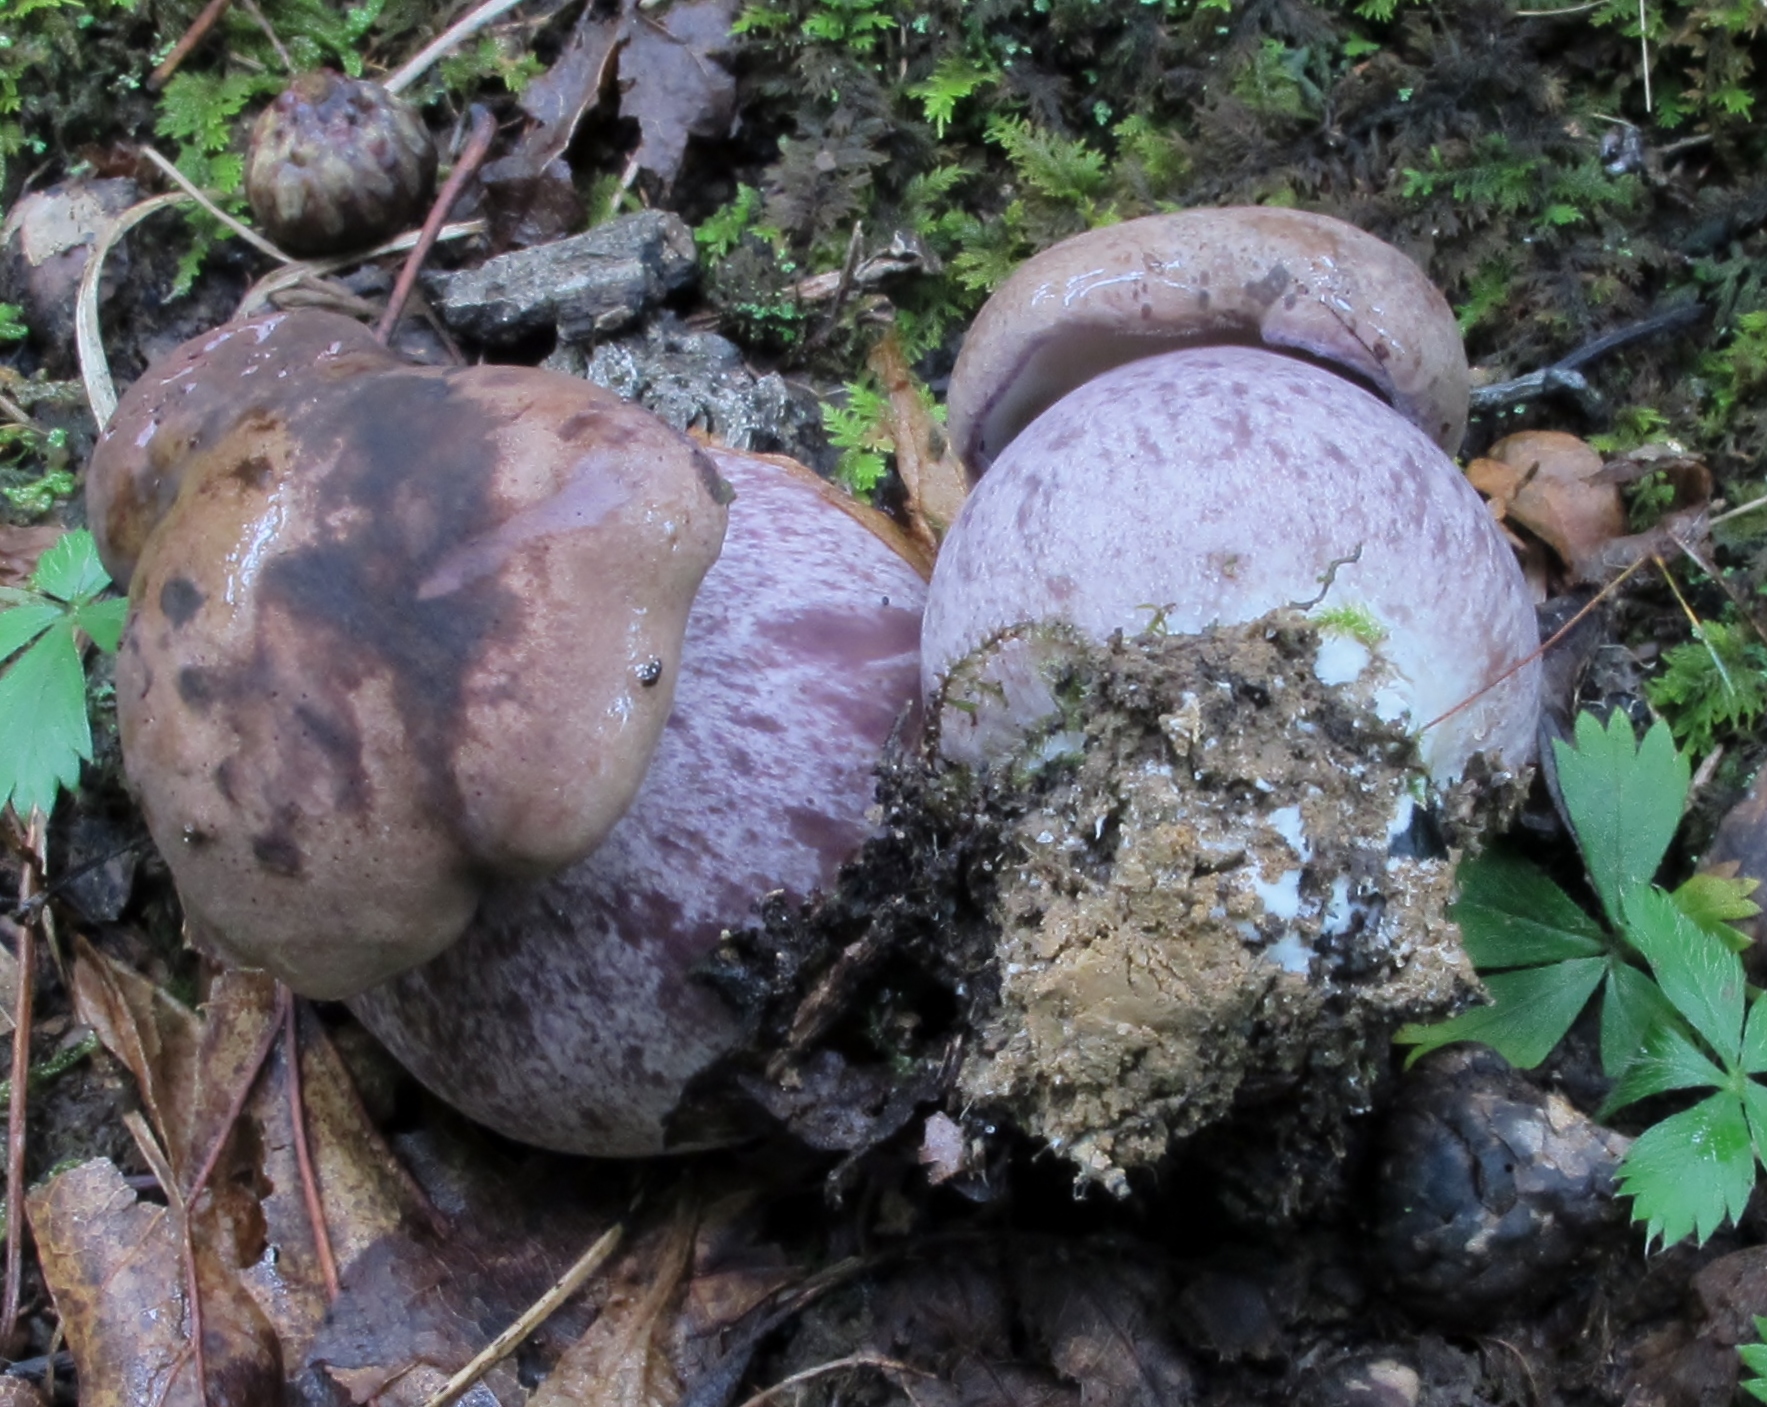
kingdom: Fungi
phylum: Basidiomycota
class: Agaricomycetes
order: Boletales
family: Boletaceae
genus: Tylopilus
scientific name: Tylopilus plumbeoviolaceus
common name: Violet gray bolete
